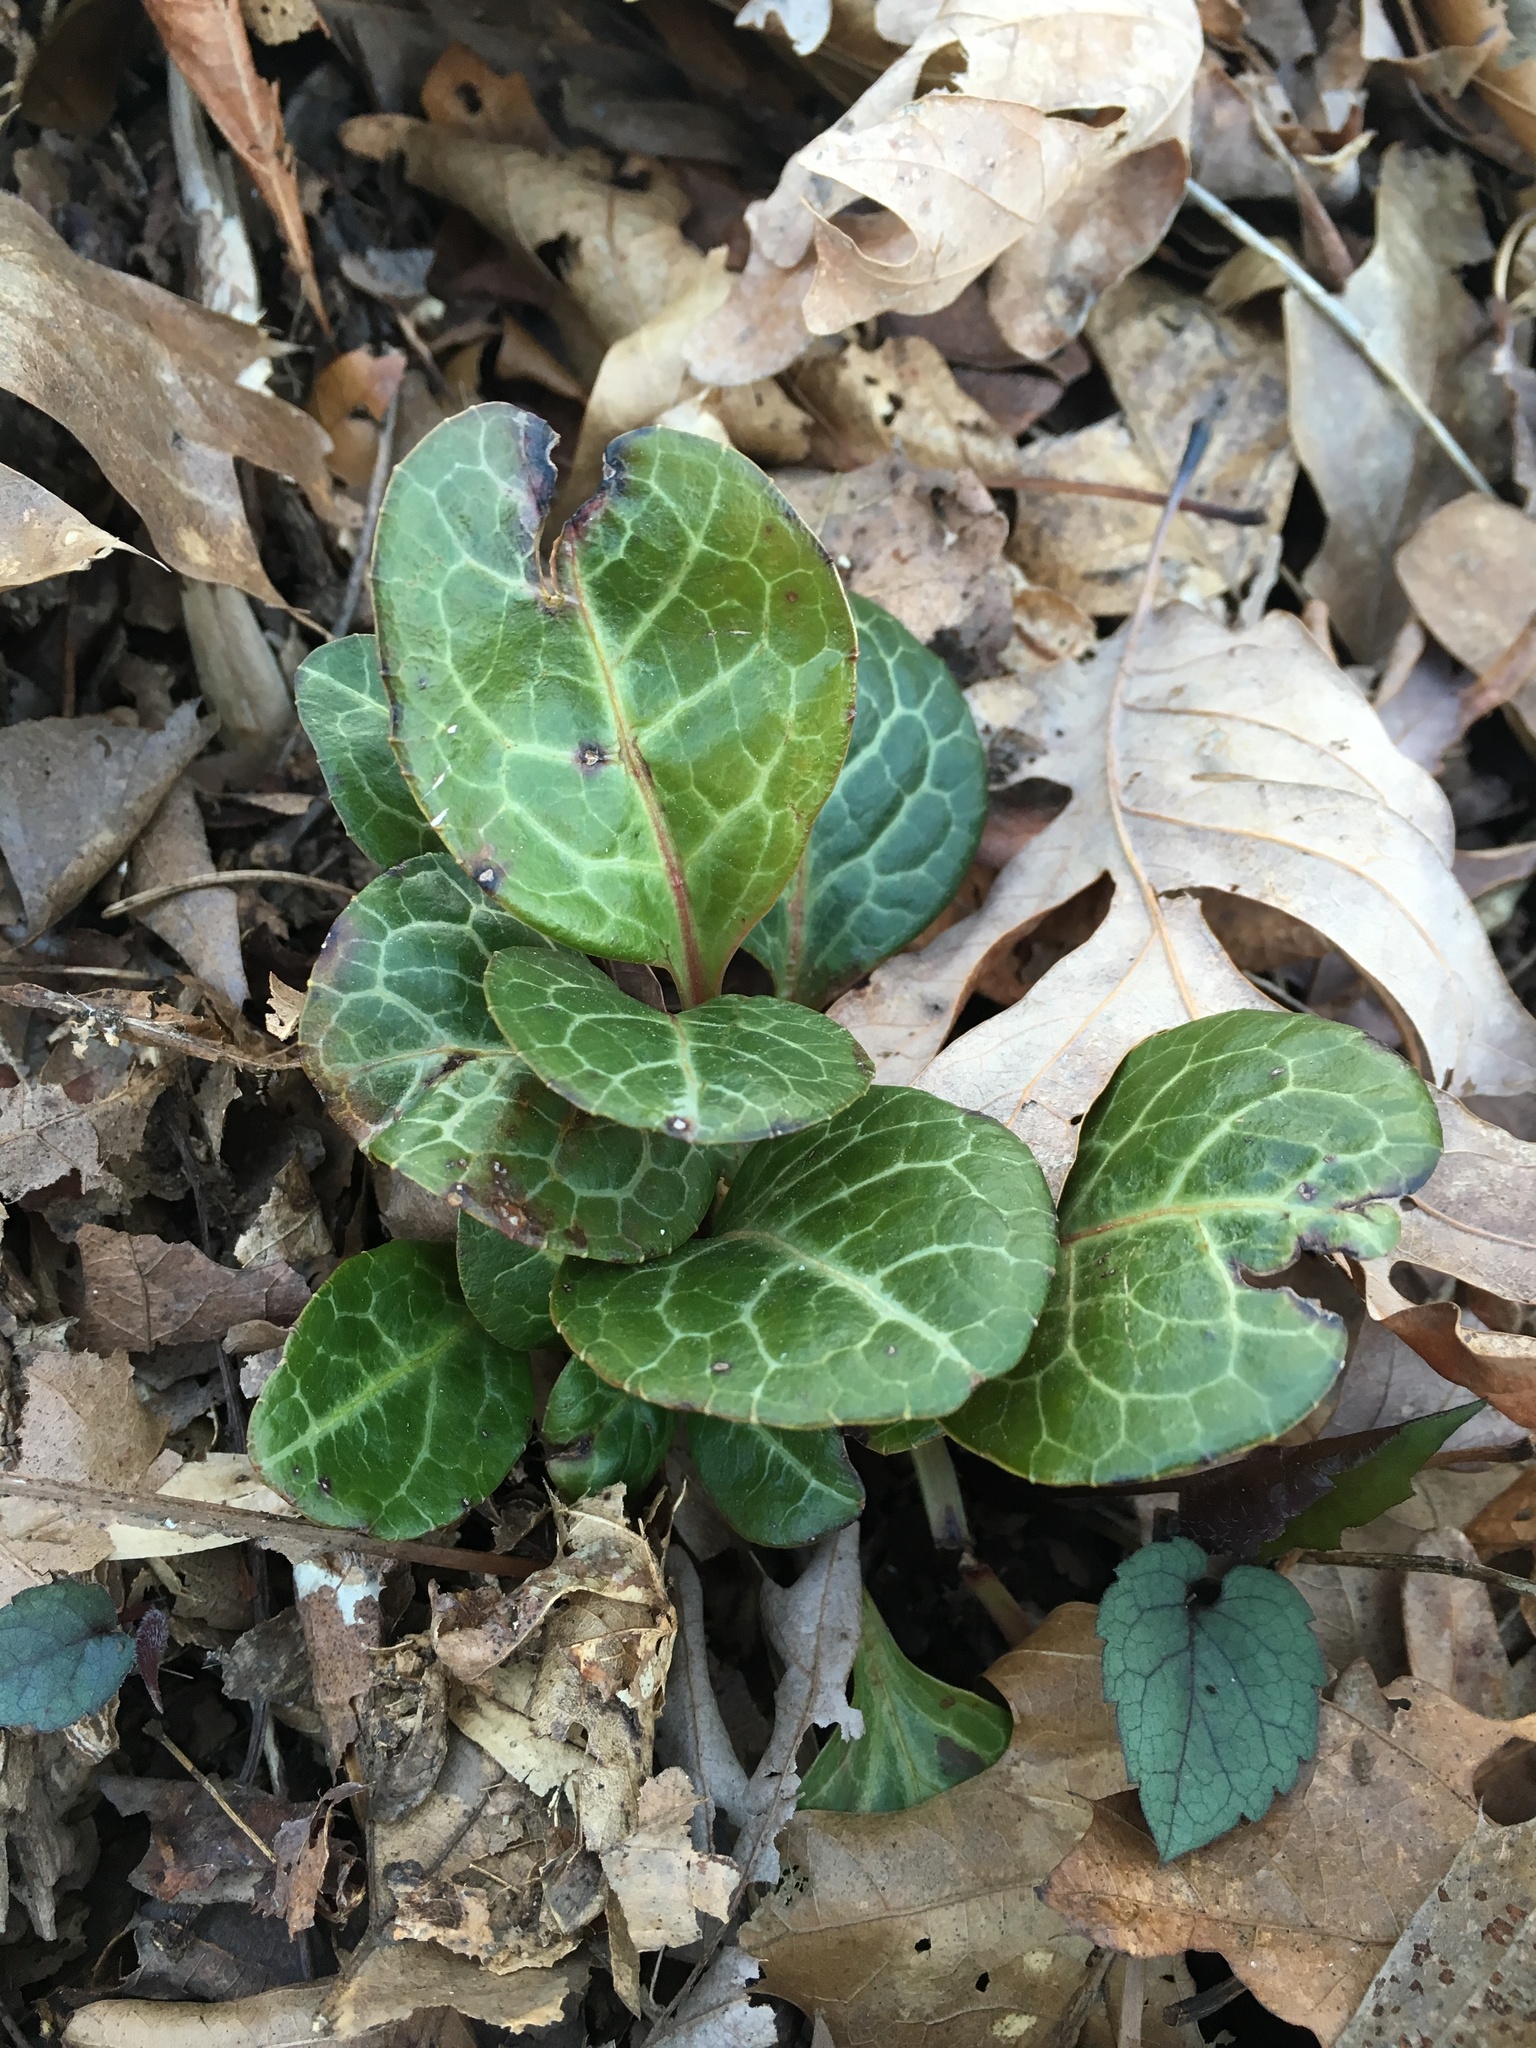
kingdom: Plantae
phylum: Tracheophyta
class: Magnoliopsida
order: Ericales
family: Ericaceae
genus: Pyrola
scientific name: Pyrola americana
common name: American wintergreen
